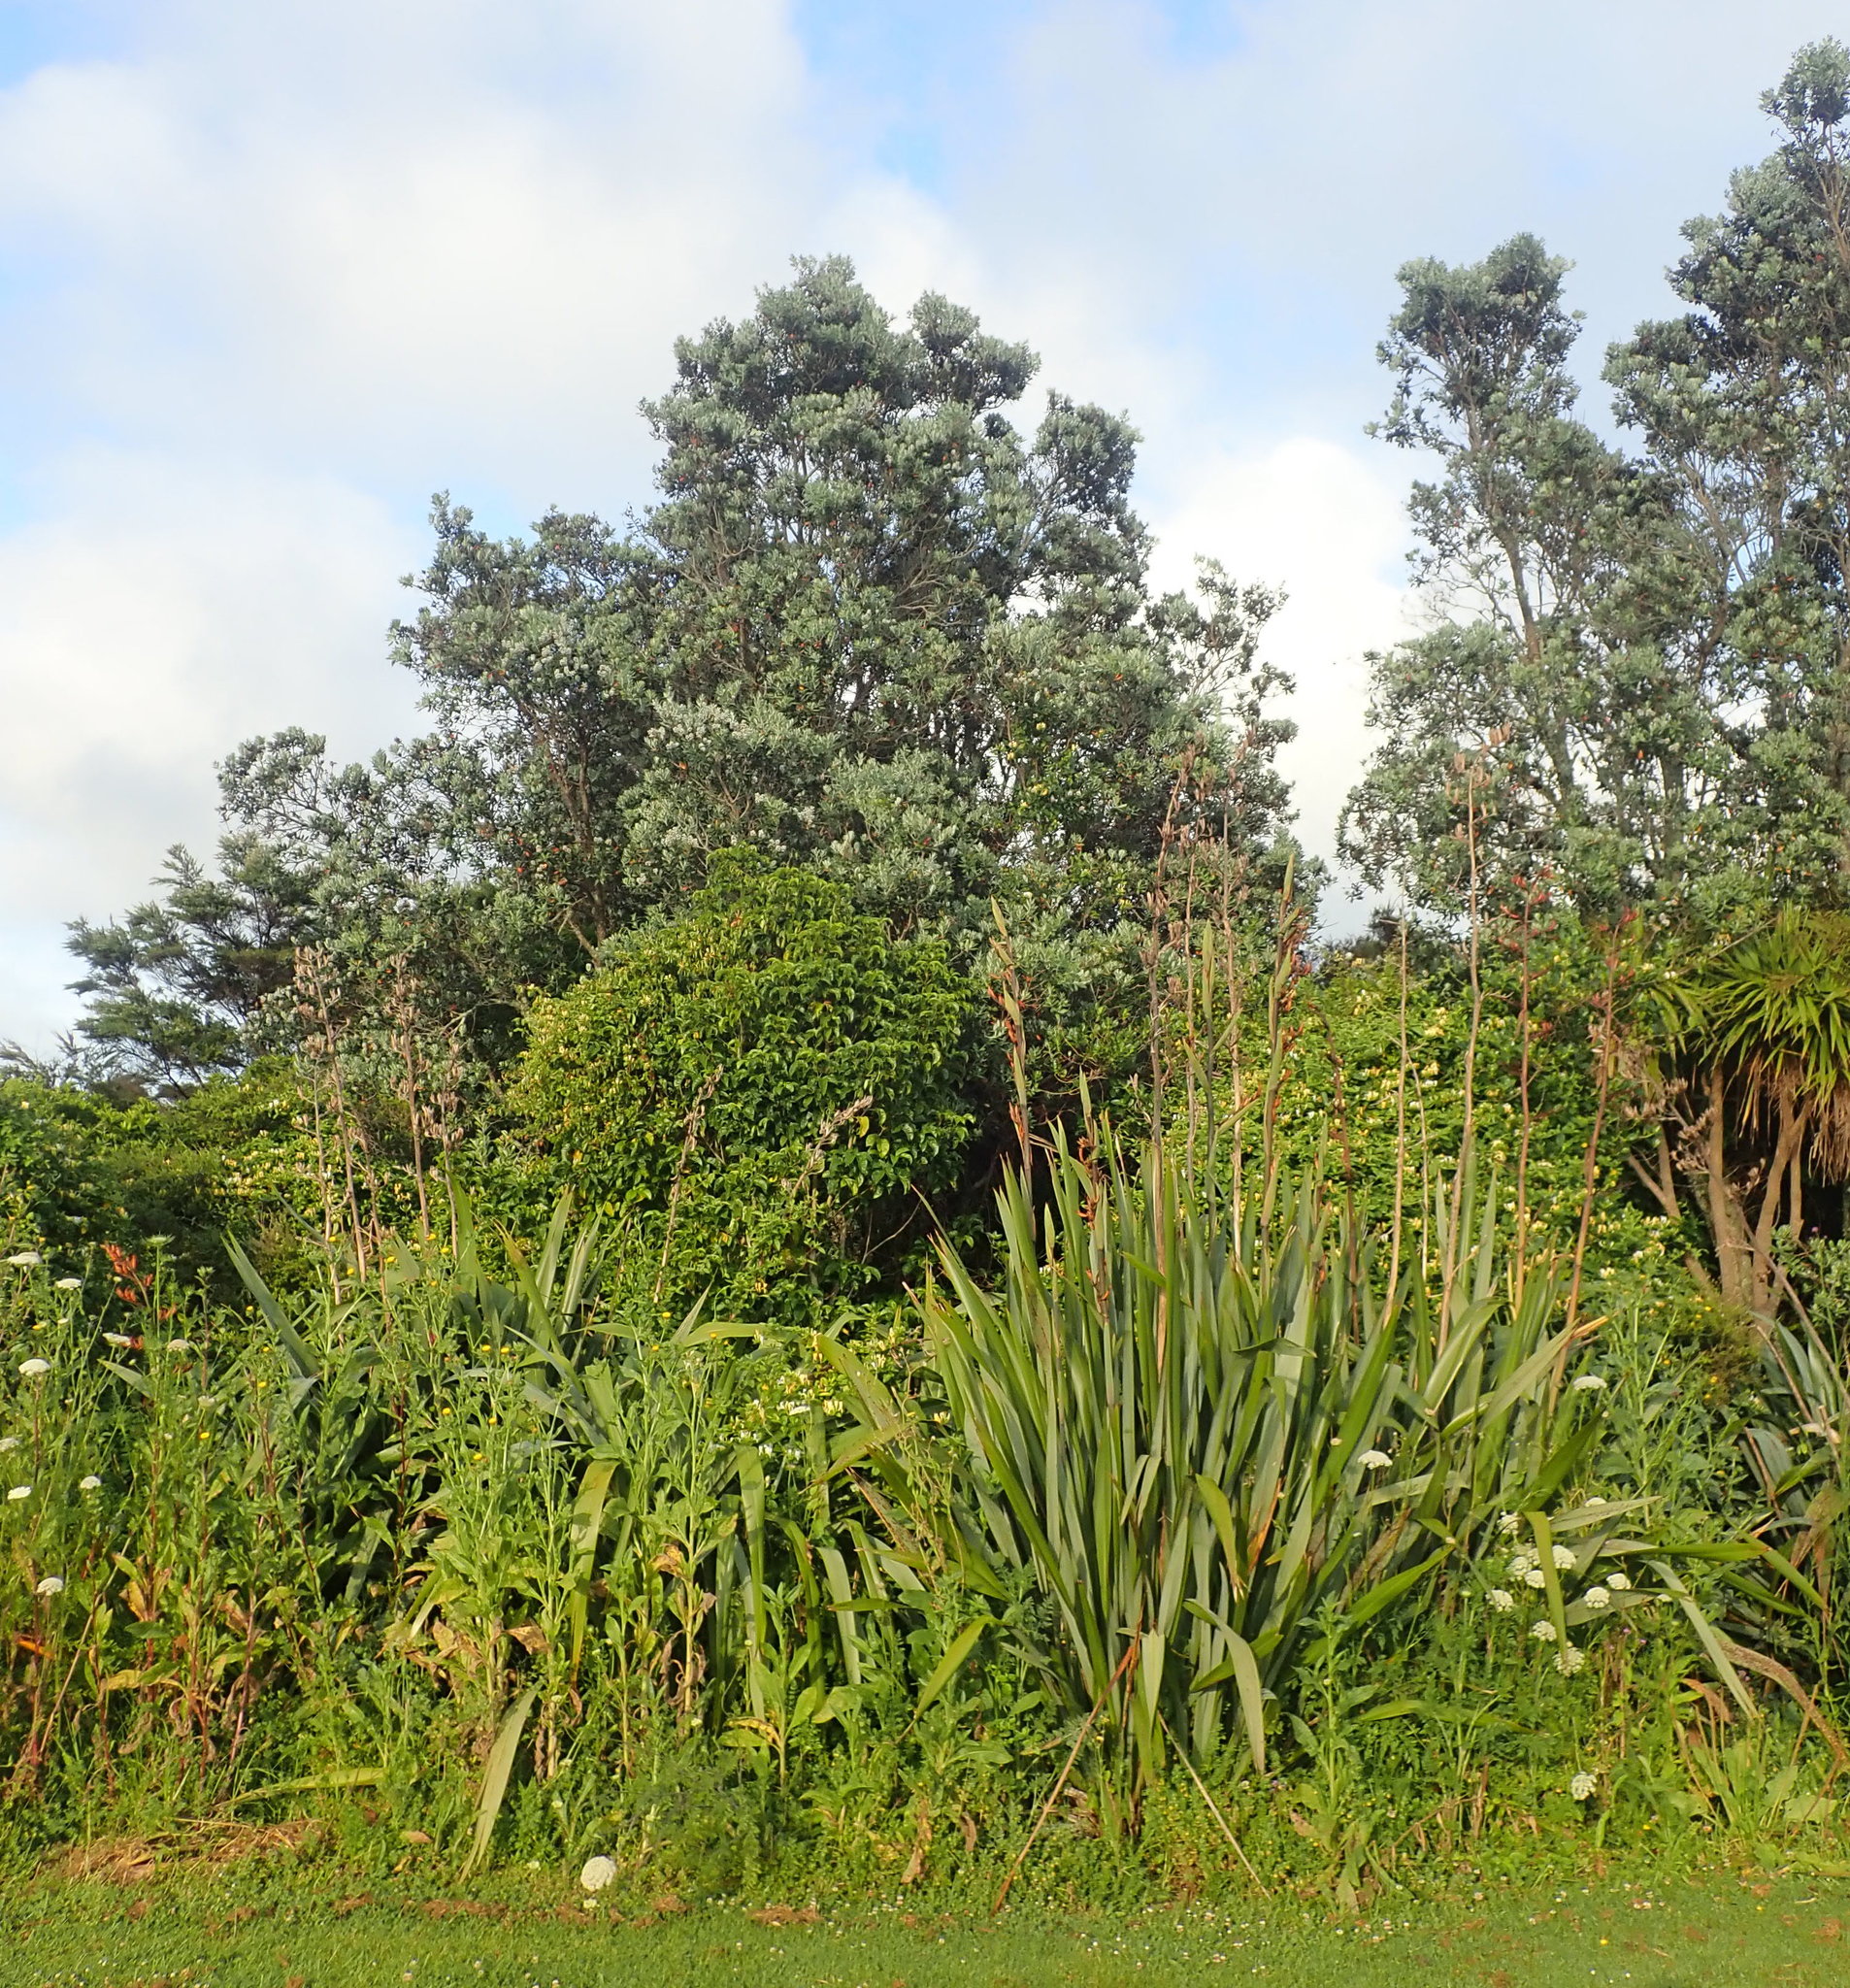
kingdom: Plantae
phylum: Tracheophyta
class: Magnoliopsida
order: Dipsacales
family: Caprifoliaceae
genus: Lonicera
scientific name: Lonicera japonica
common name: Japanese honeysuckle
